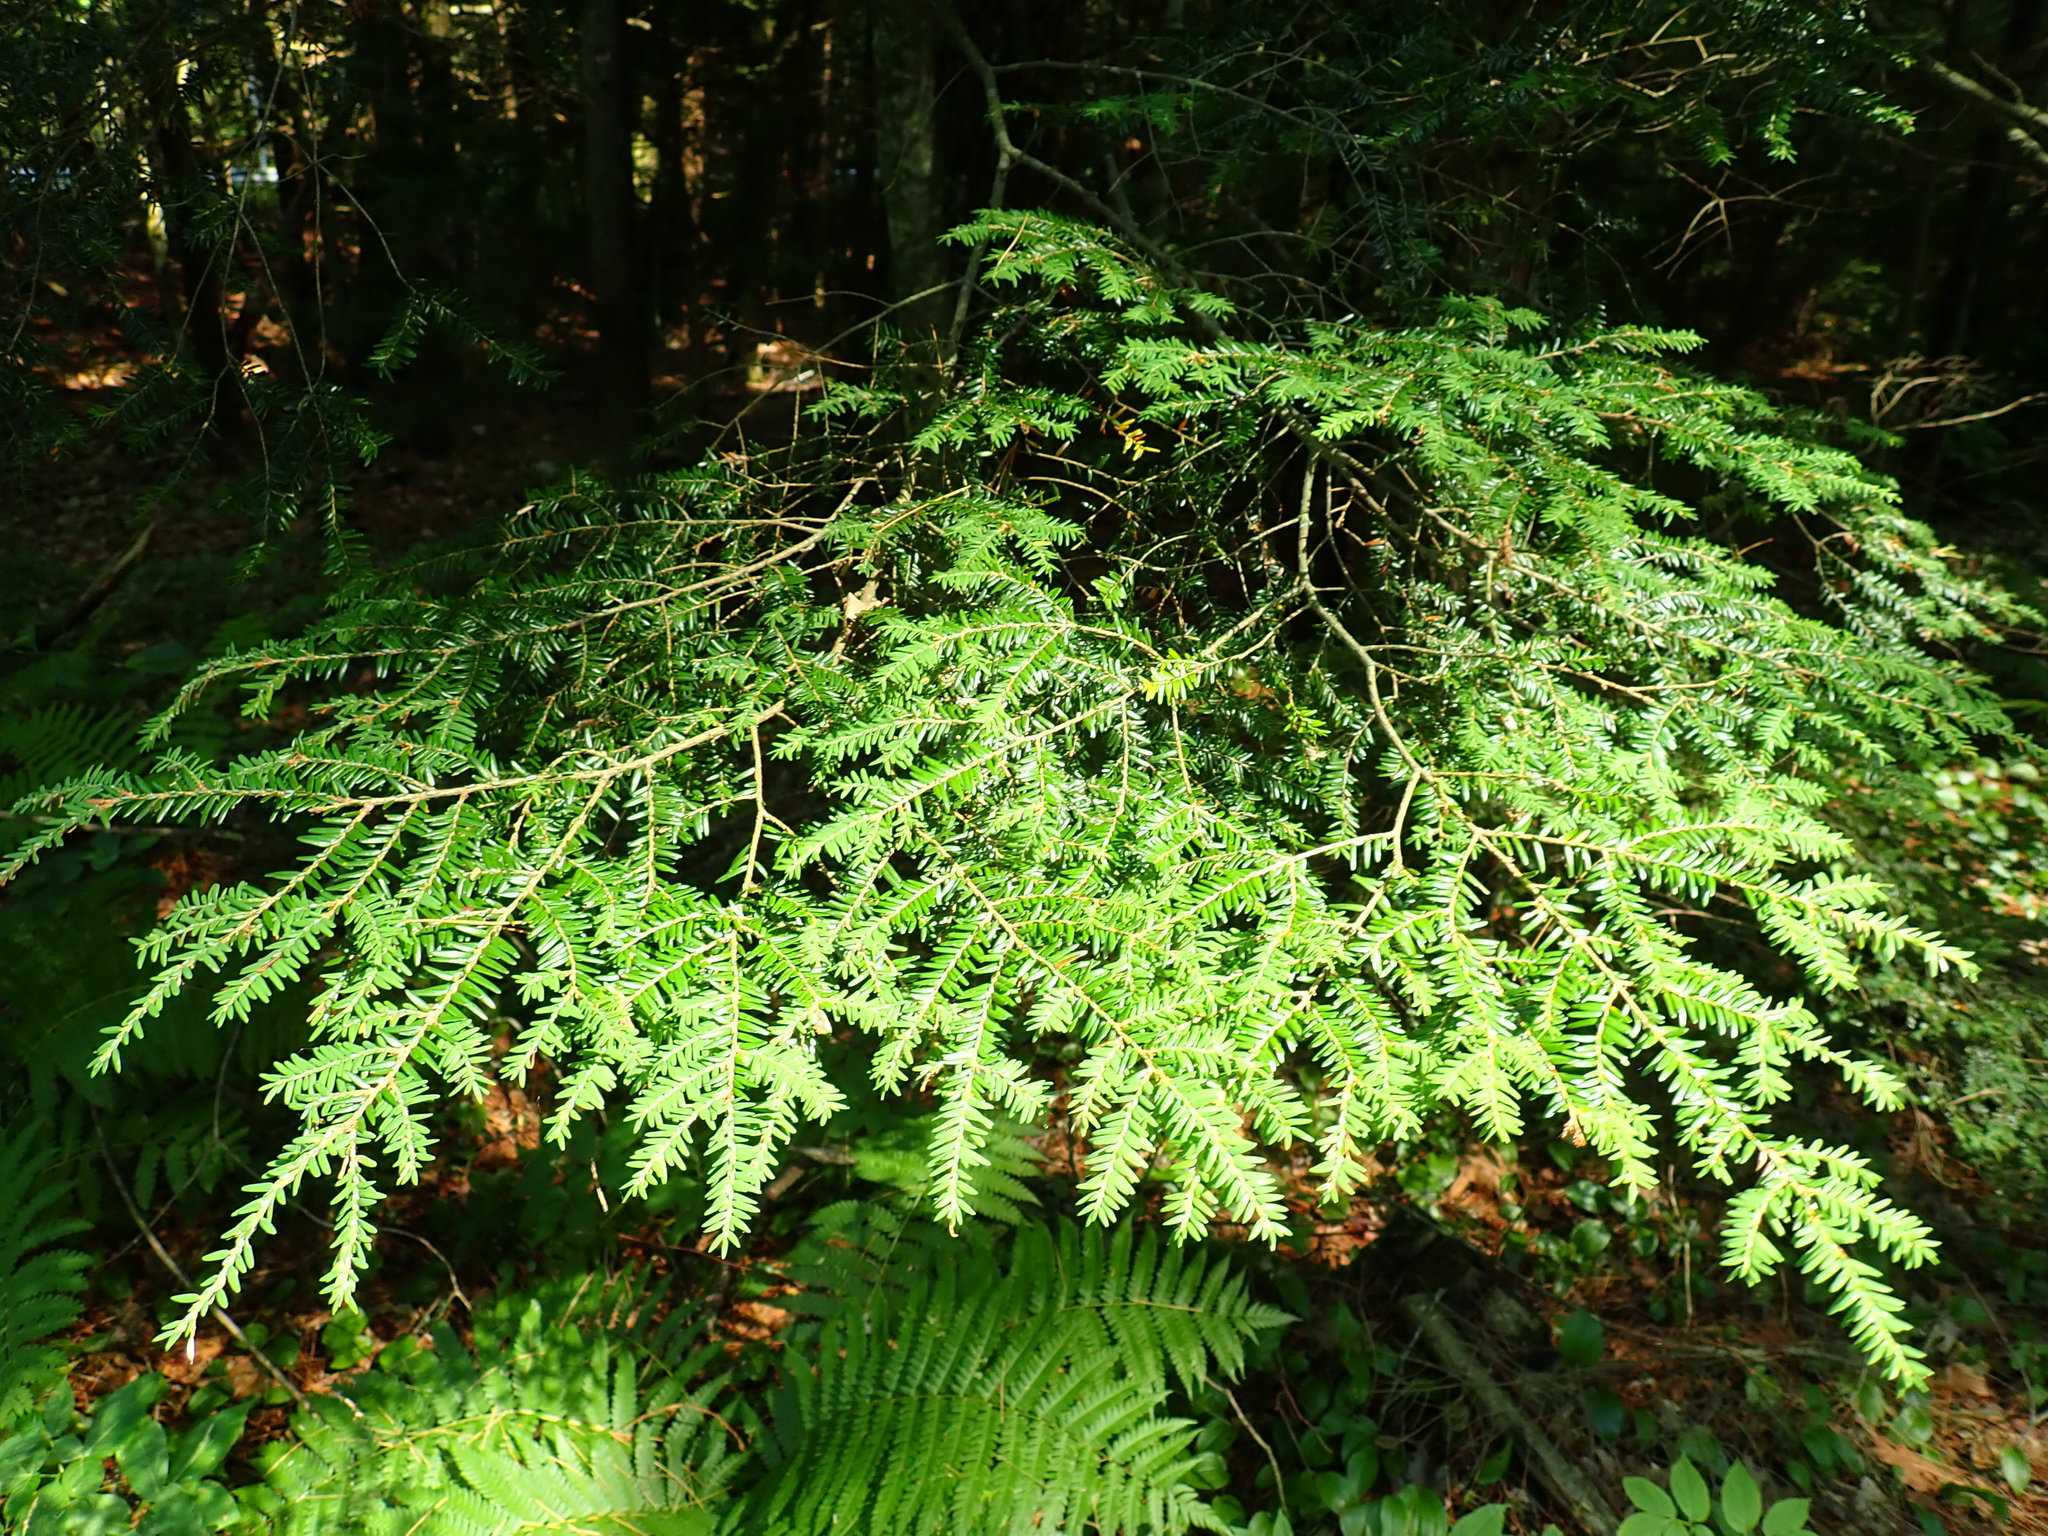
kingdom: Plantae
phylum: Tracheophyta
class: Pinopsida
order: Pinales
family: Pinaceae
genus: Tsuga
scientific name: Tsuga canadensis
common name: Eastern hemlock
